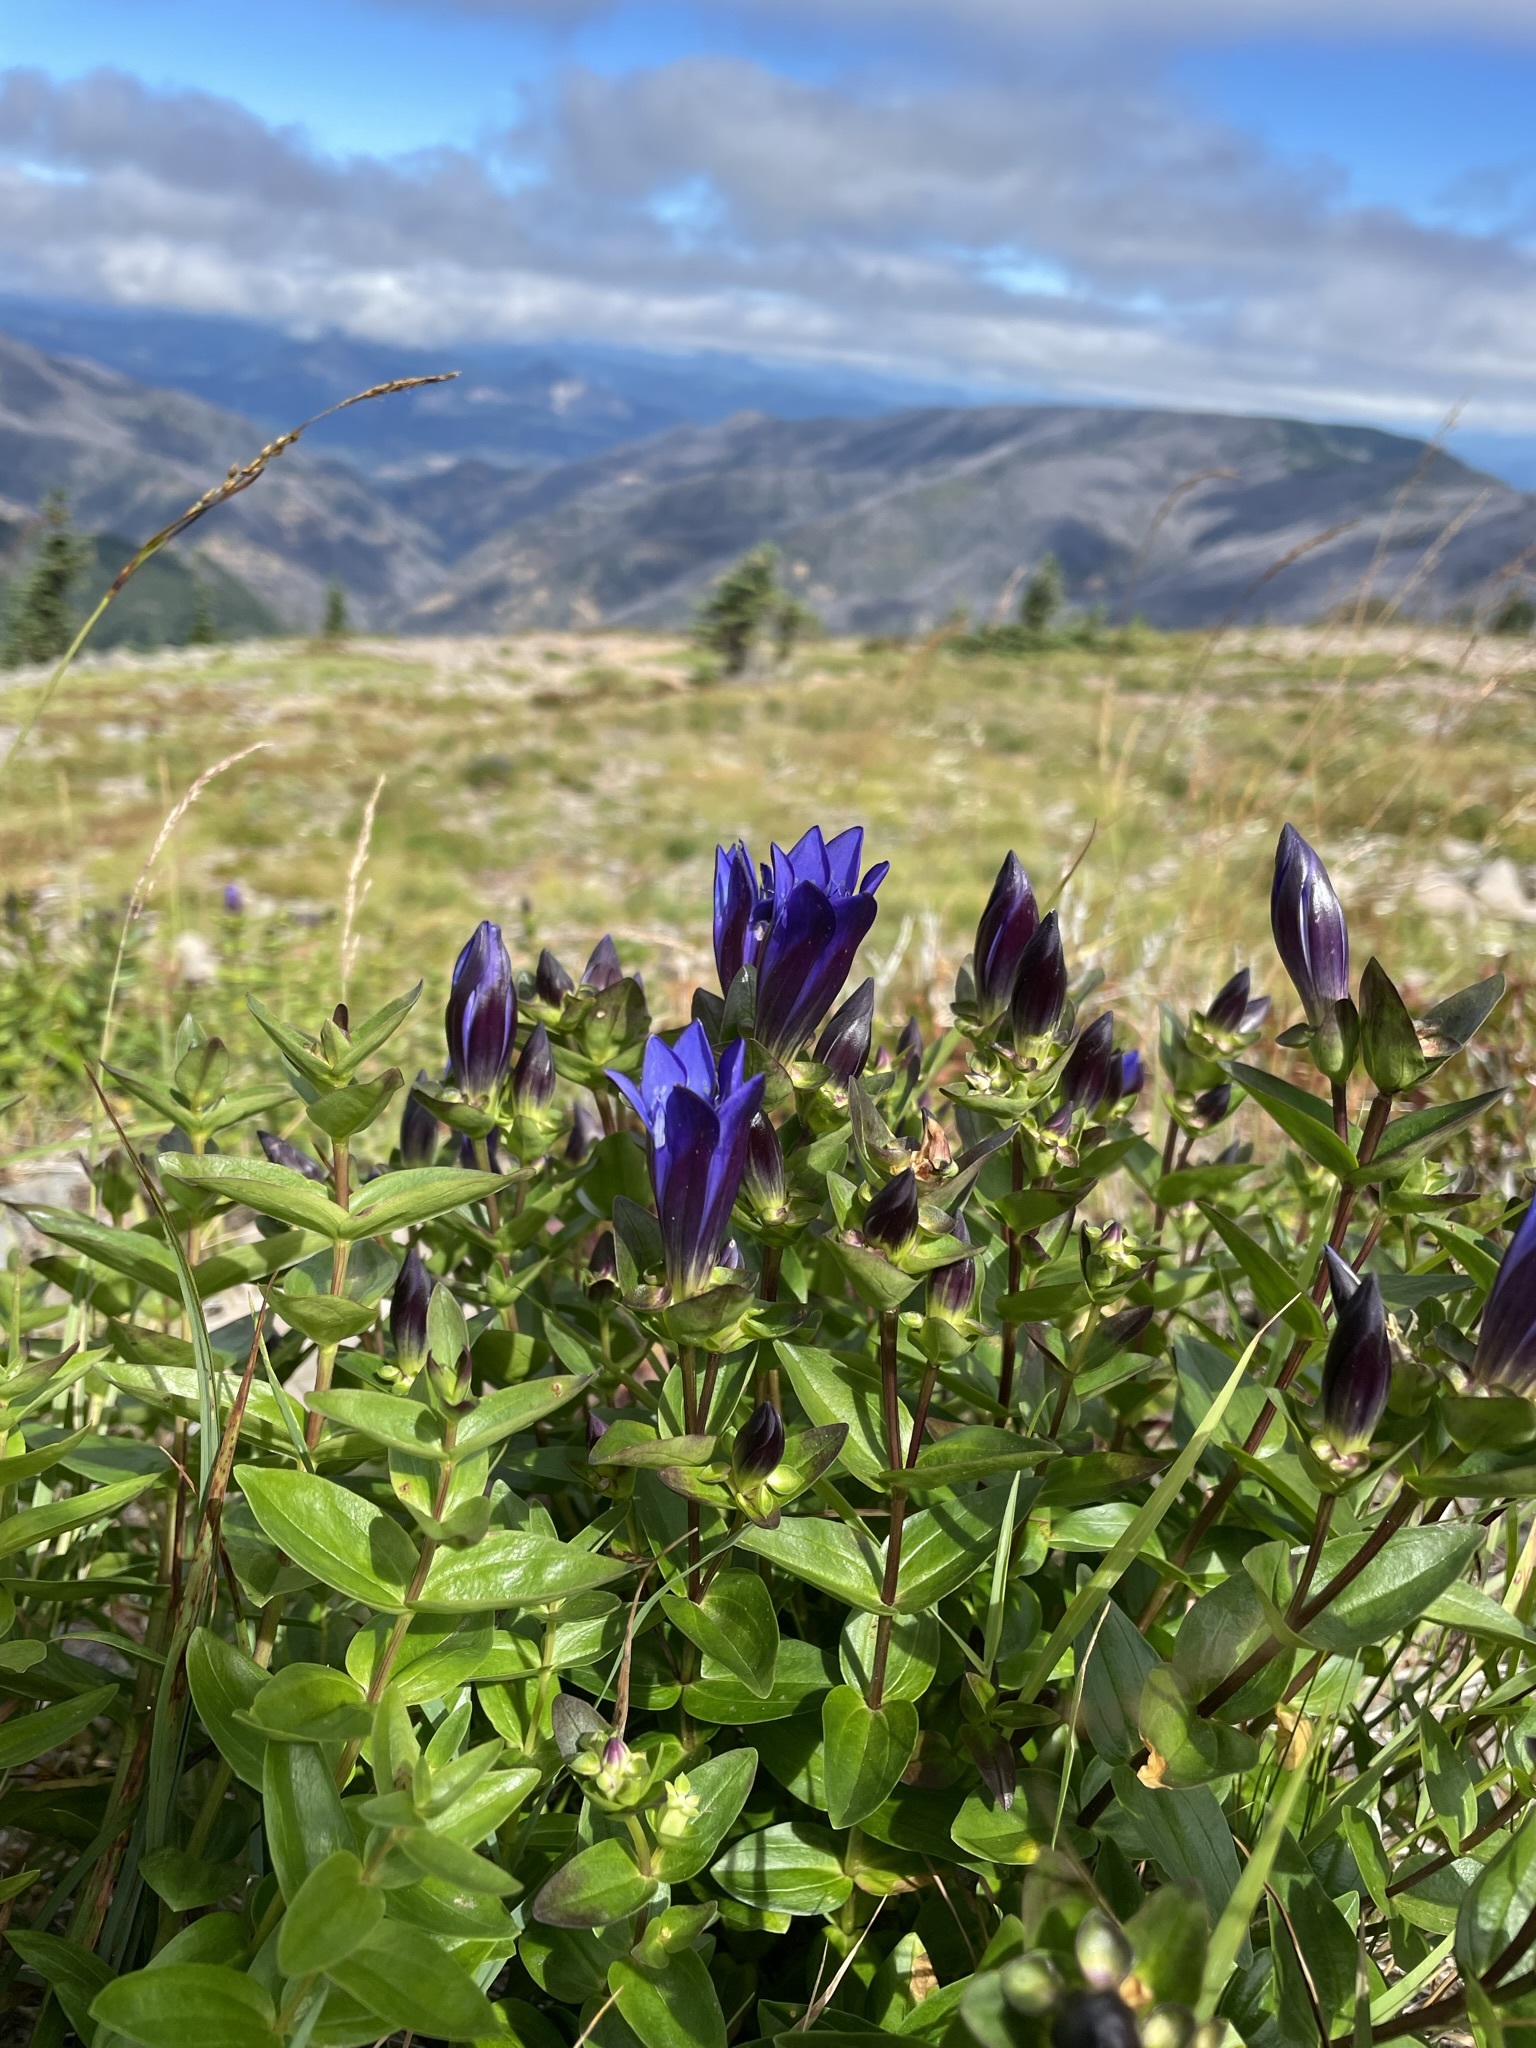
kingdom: Plantae
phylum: Tracheophyta
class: Magnoliopsida
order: Gentianales
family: Gentianaceae
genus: Gentiana
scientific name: Gentiana calycosa
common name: Rainier pleated gentian
